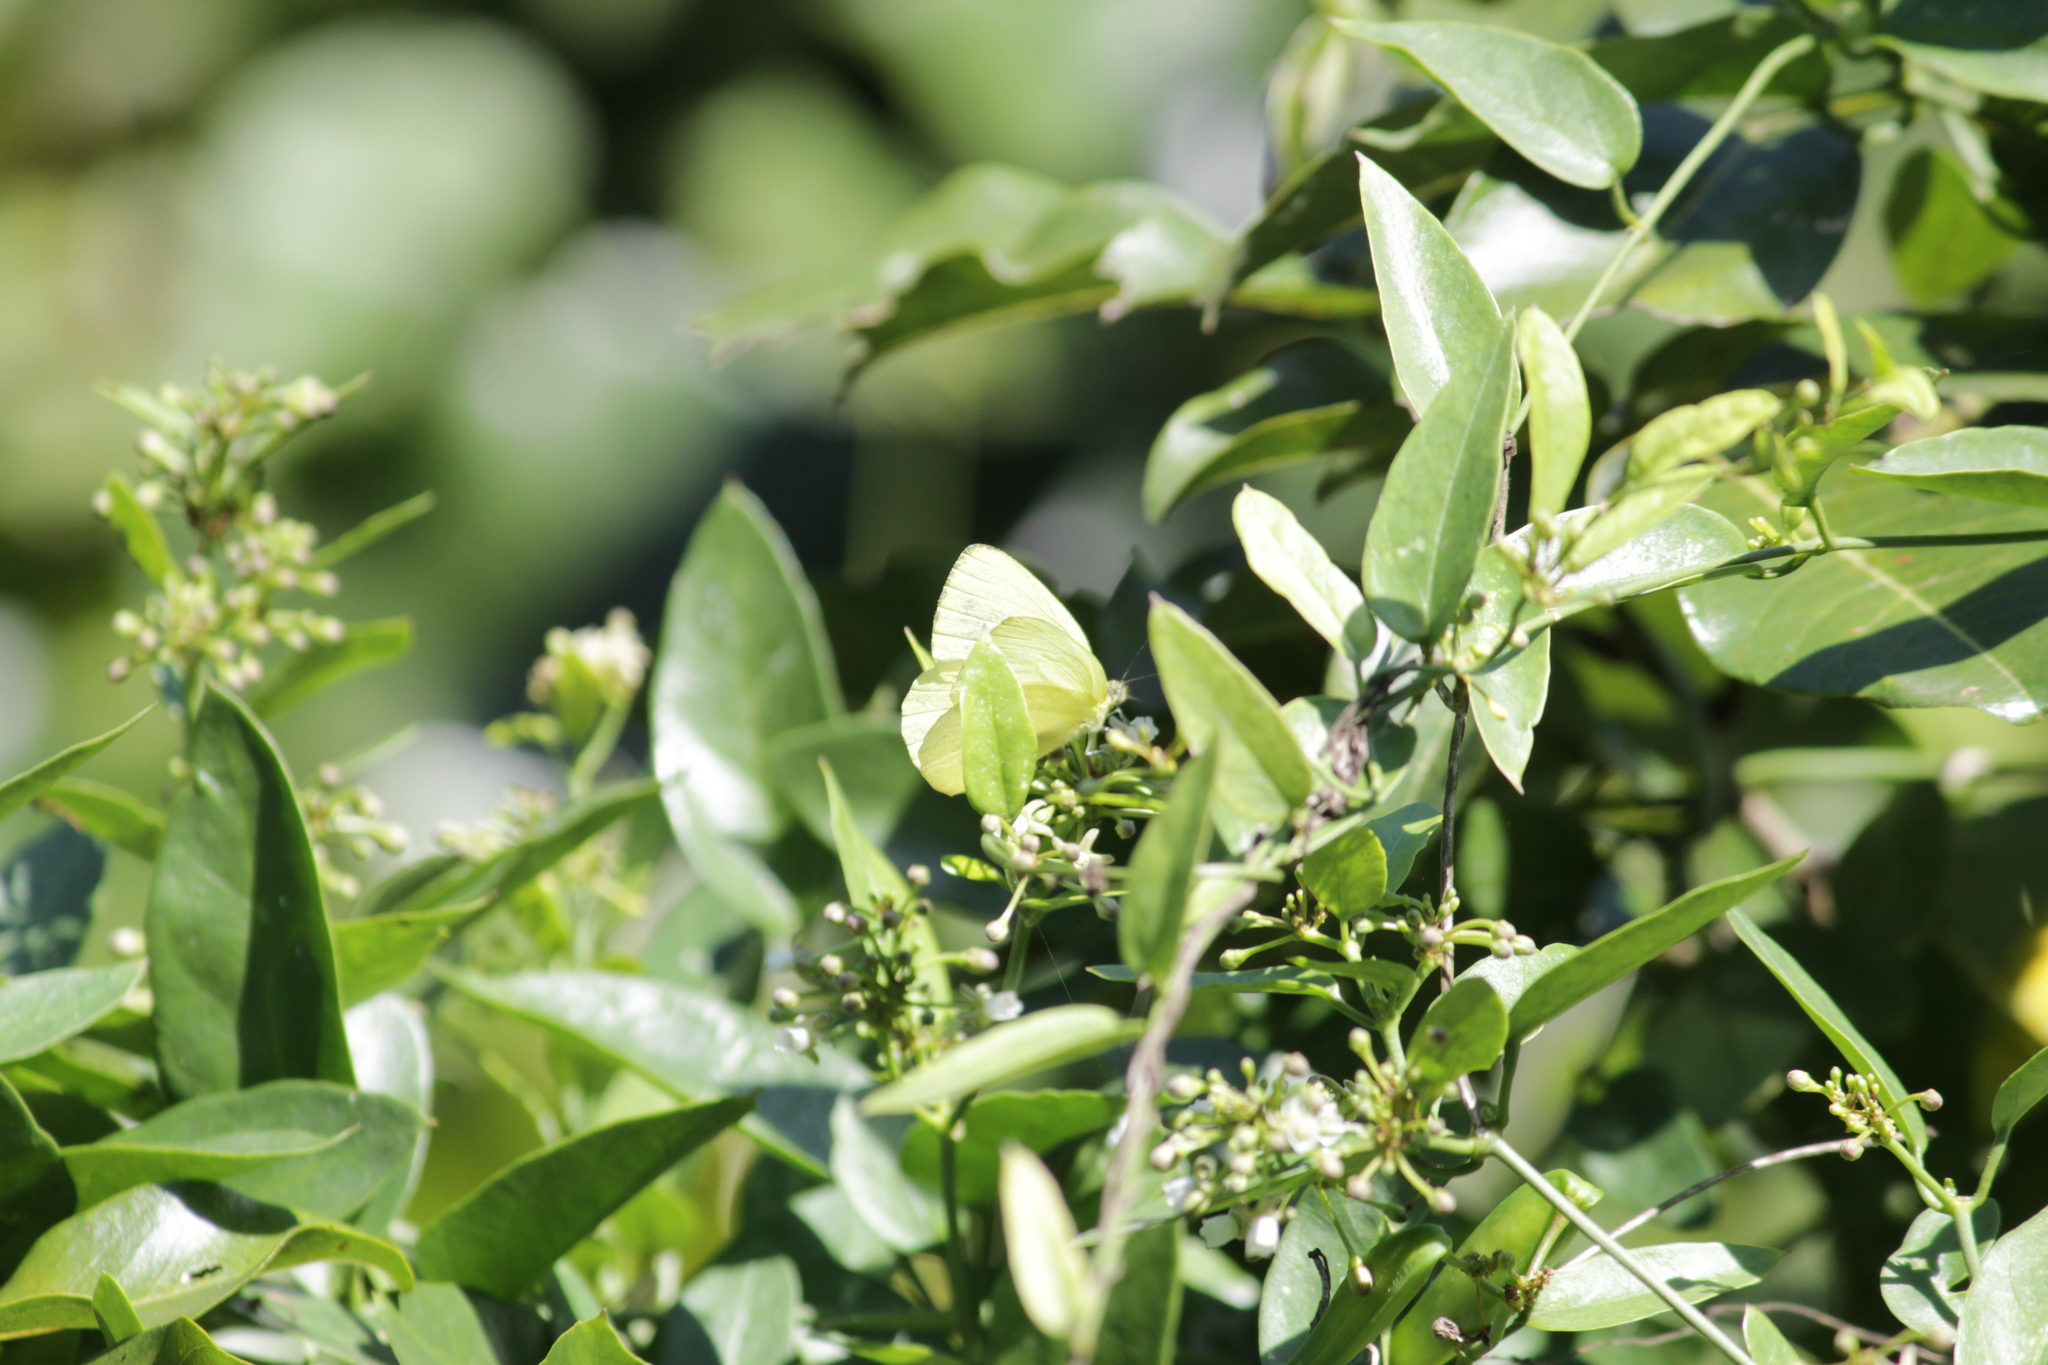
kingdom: Animalia
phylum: Arthropoda
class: Insecta
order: Lepidoptera
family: Pieridae
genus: Dixeia
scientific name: Dixeia spilleri
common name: Sulphur ant-heap white
